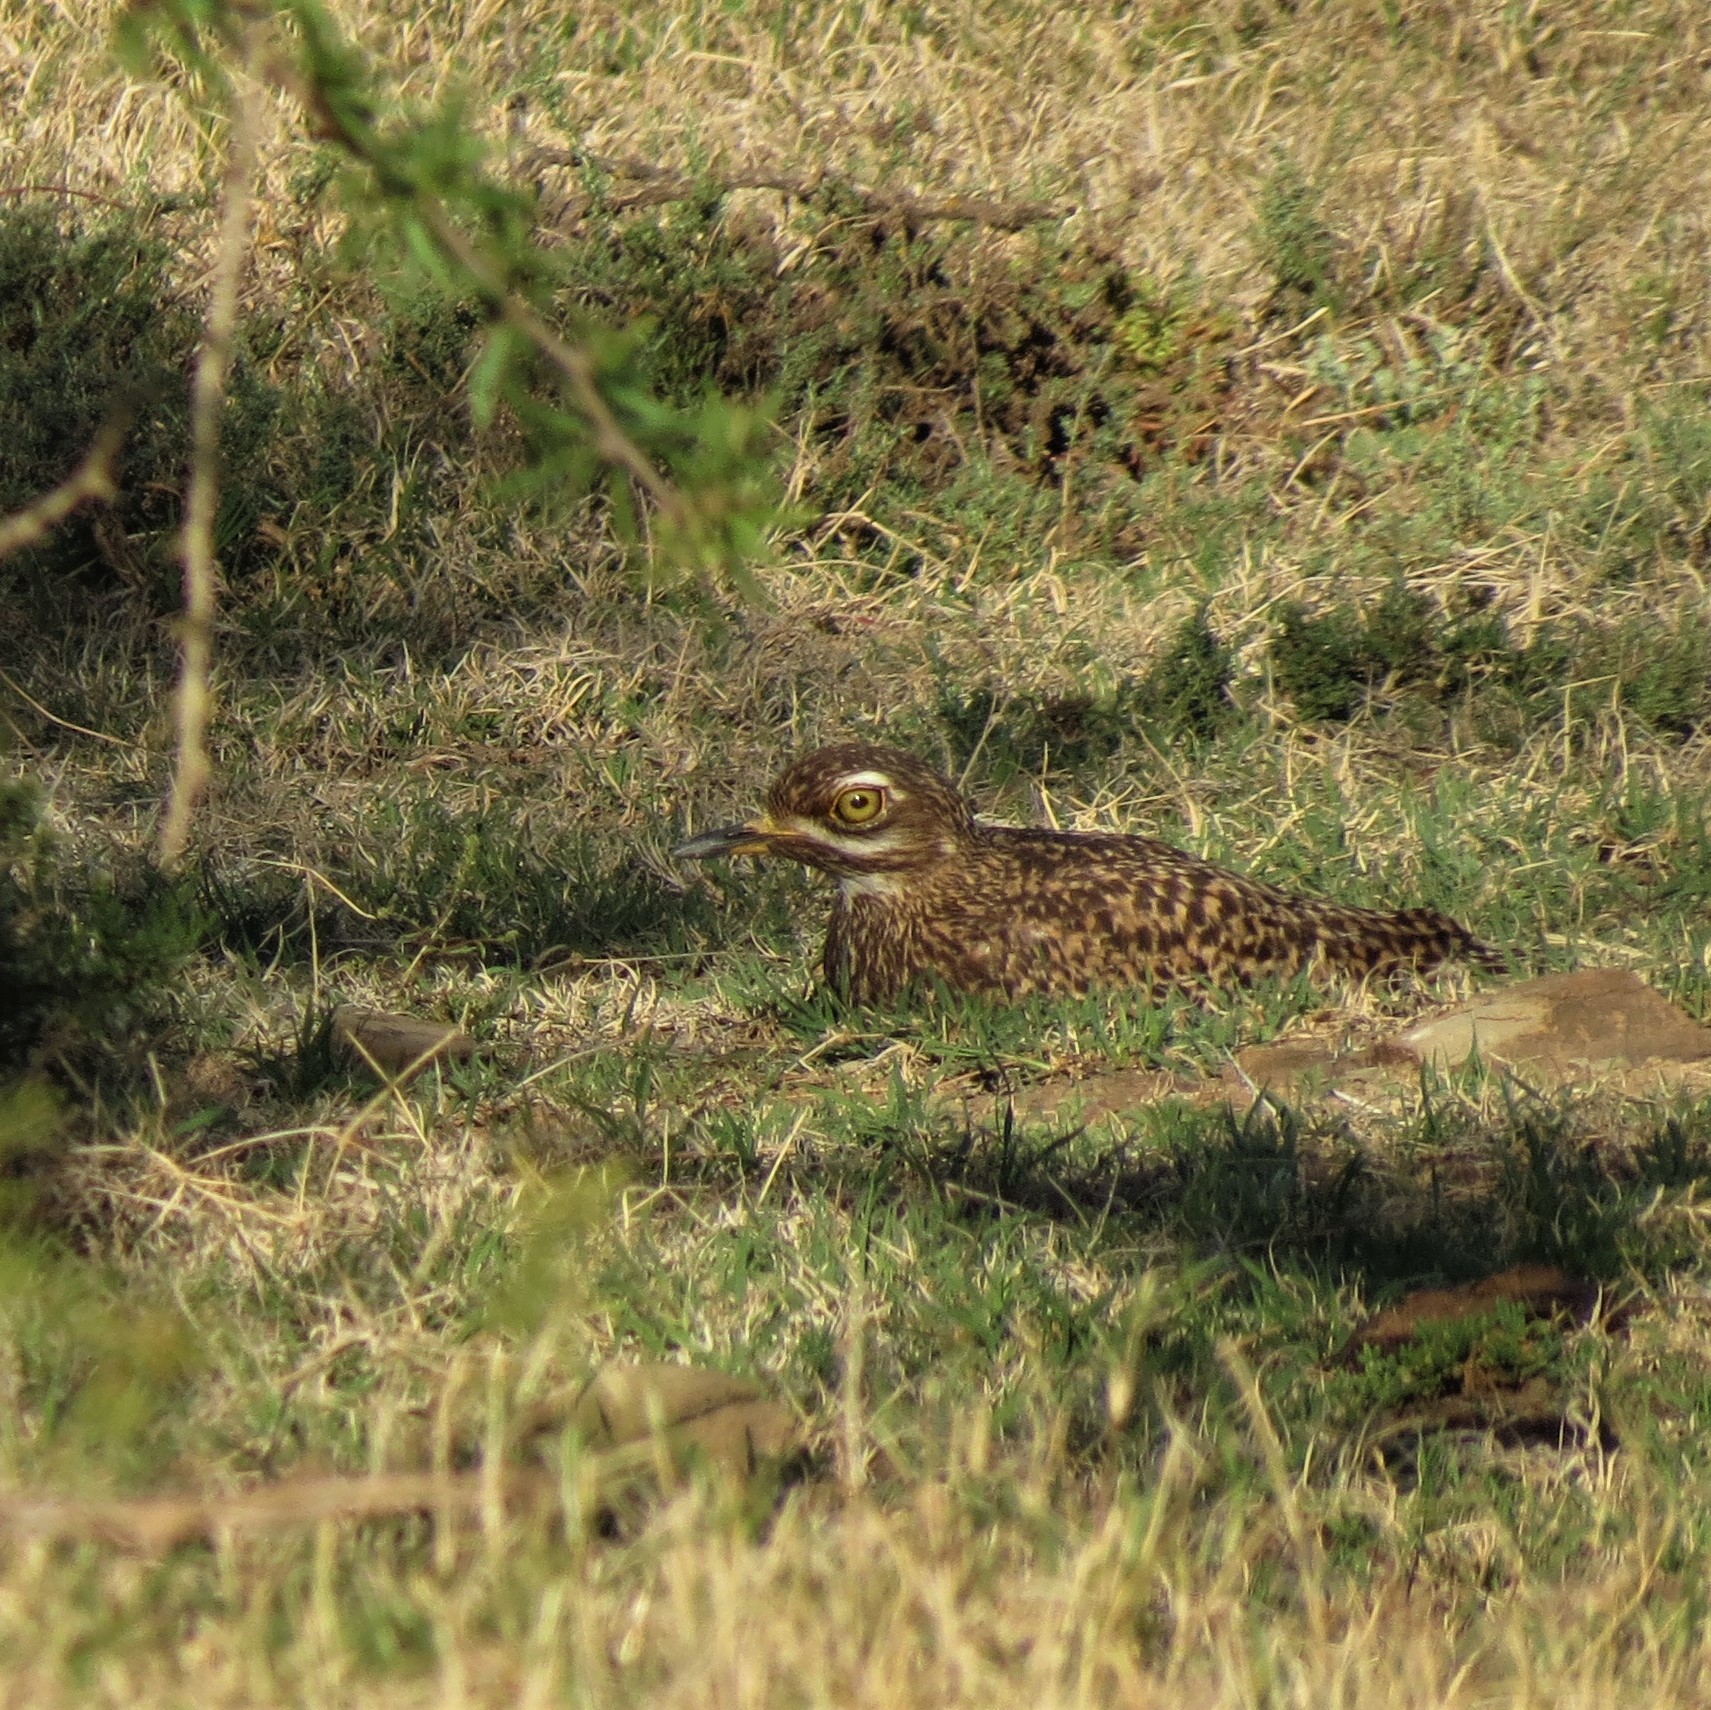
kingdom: Animalia
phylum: Chordata
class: Aves
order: Charadriiformes
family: Burhinidae
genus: Burhinus
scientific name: Burhinus capensis
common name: Spotted thick-knee
